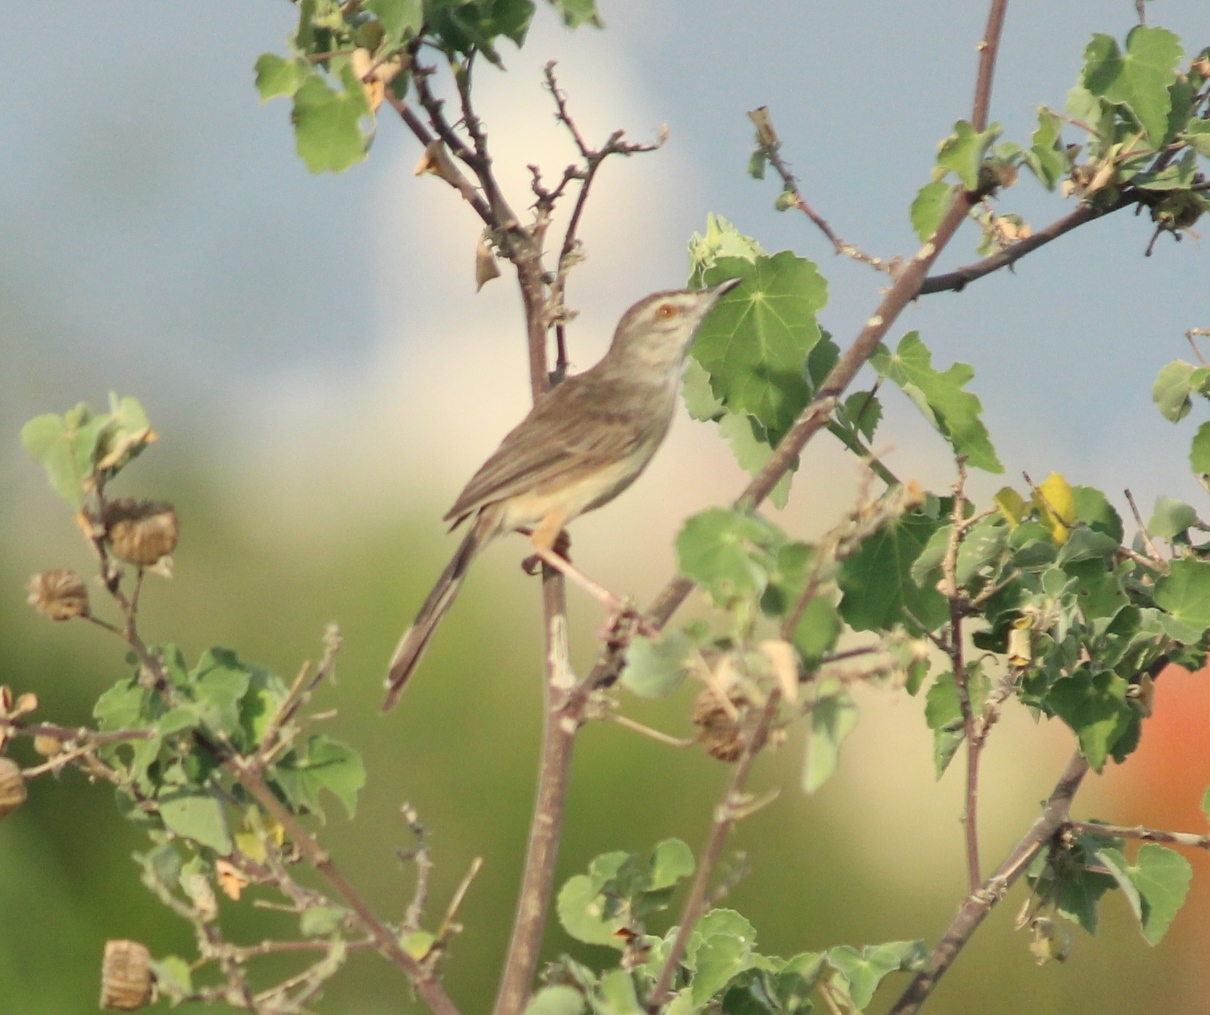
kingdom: Animalia
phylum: Chordata
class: Aves
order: Passeriformes
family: Cisticolidae
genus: Prinia
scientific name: Prinia inornata
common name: Plain prinia
